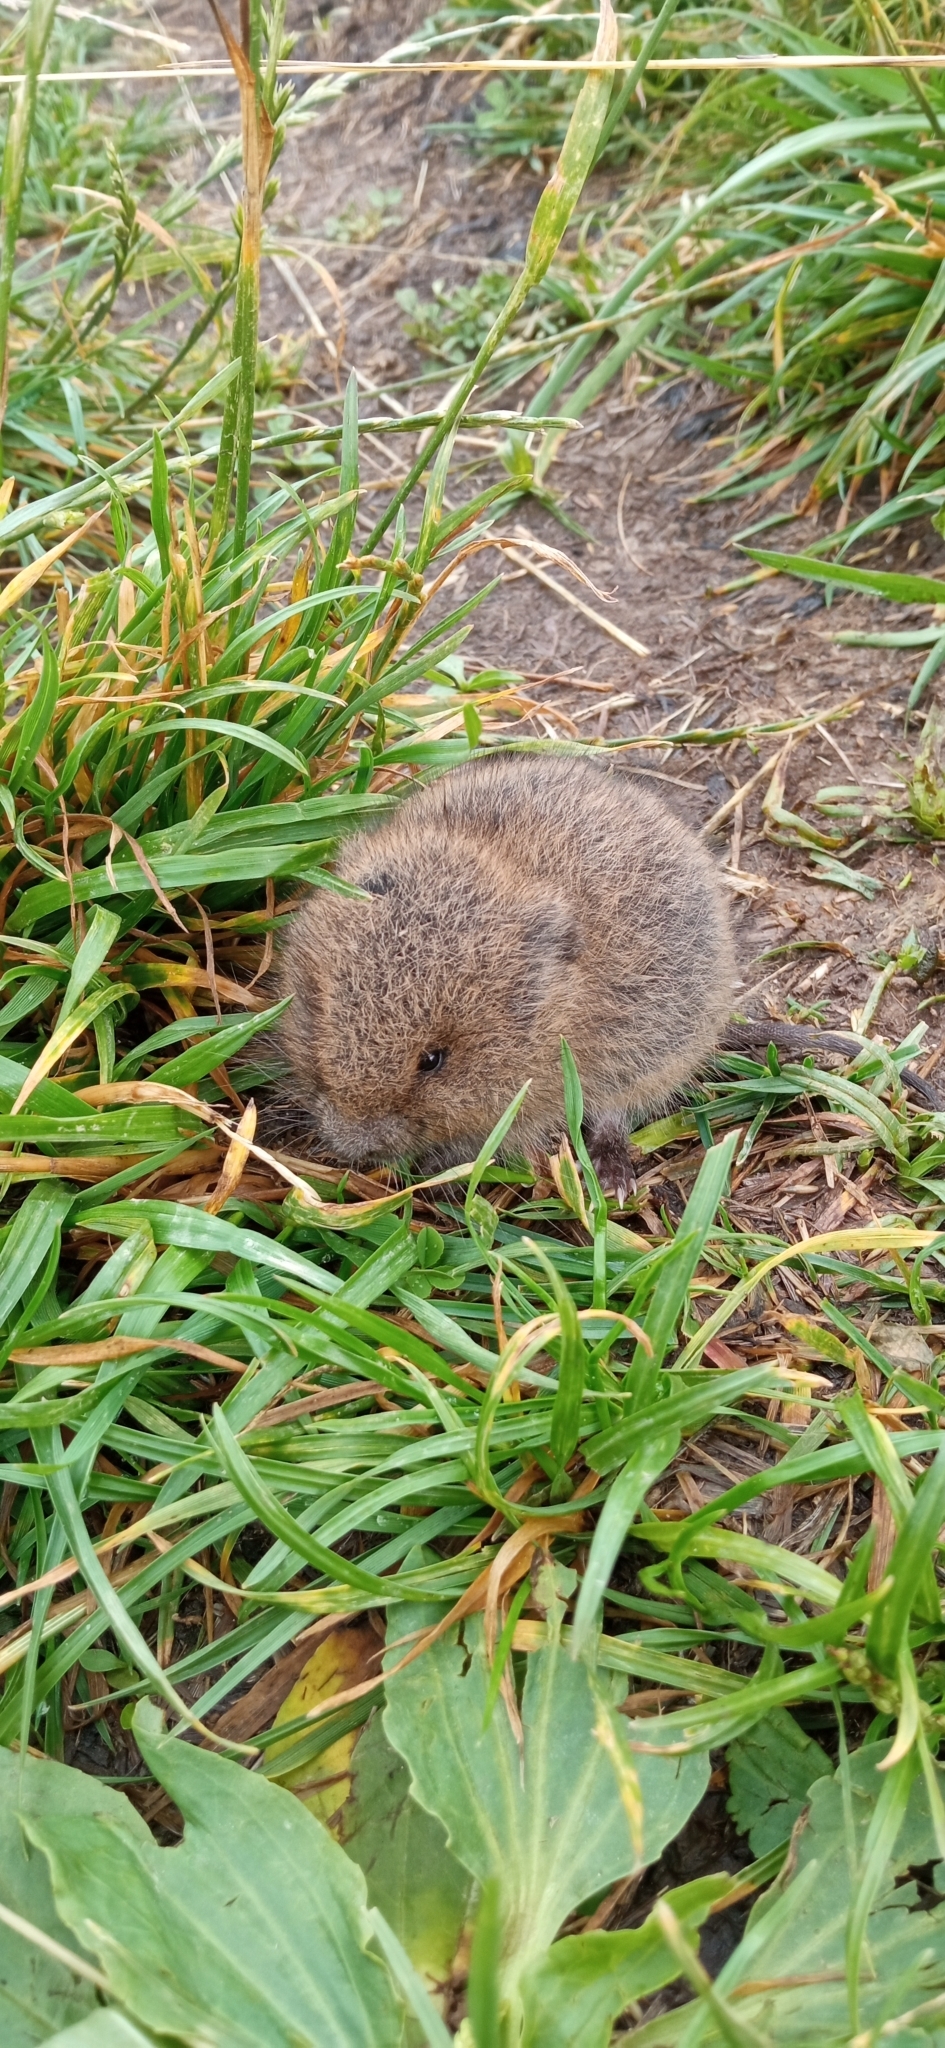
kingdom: Animalia
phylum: Chordata
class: Mammalia
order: Rodentia
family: Cricetidae
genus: Microtus
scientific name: Microtus arvalis
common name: Common vole
